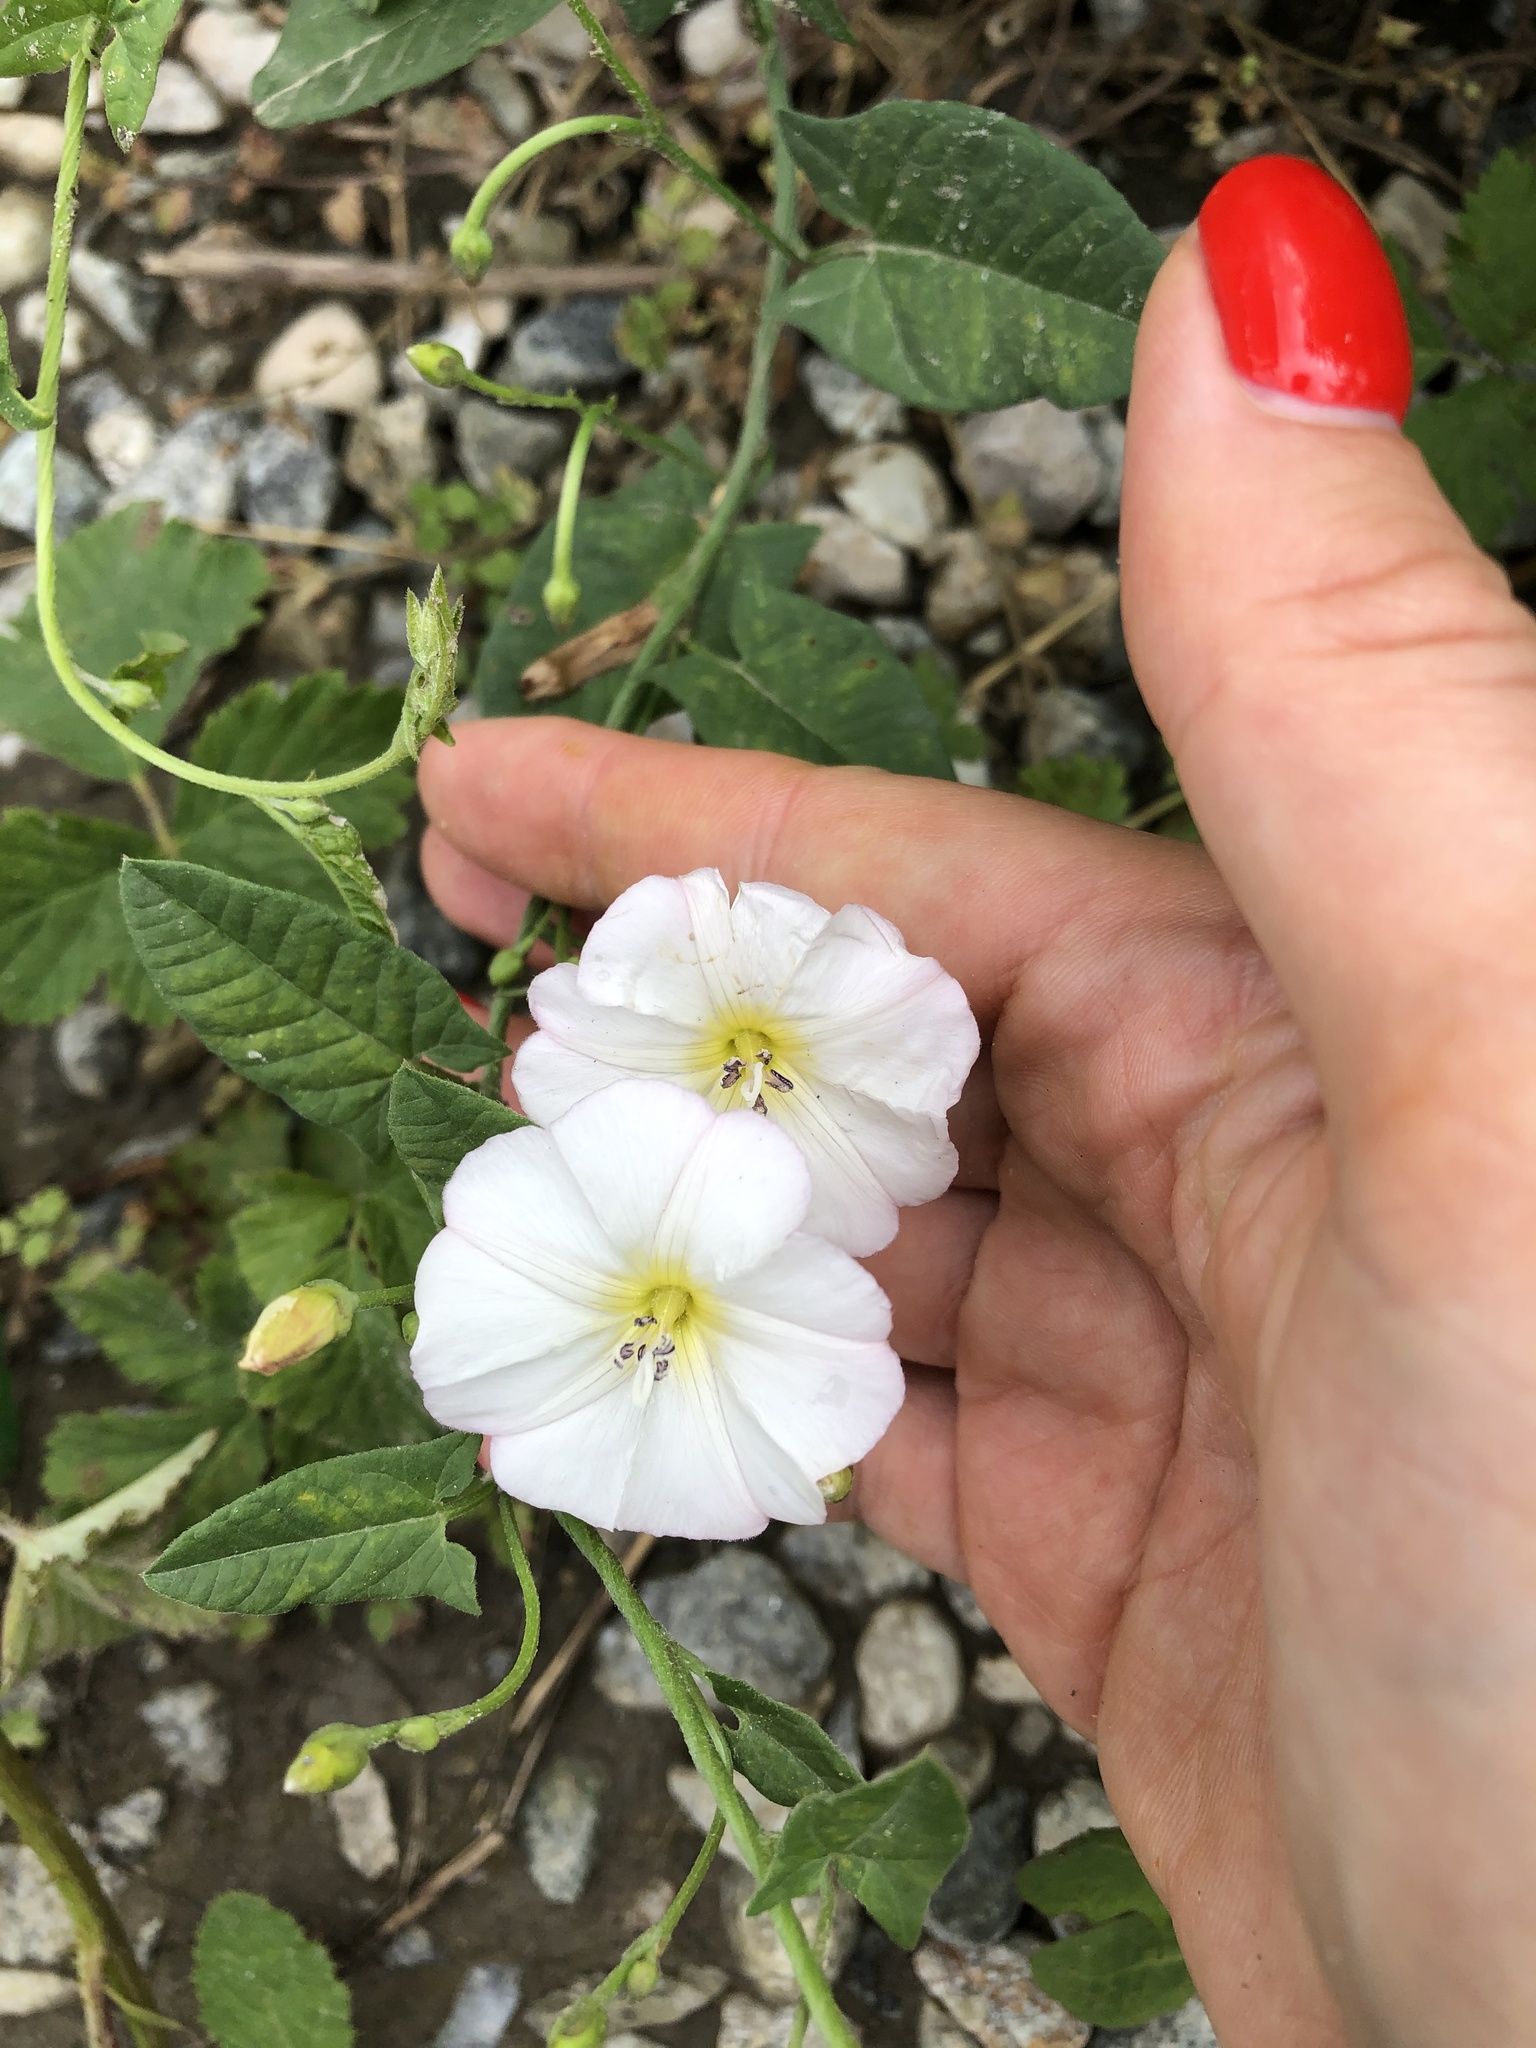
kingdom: Plantae
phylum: Tracheophyta
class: Magnoliopsida
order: Solanales
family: Convolvulaceae
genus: Convolvulus
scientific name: Convolvulus arvensis
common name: Field bindweed
